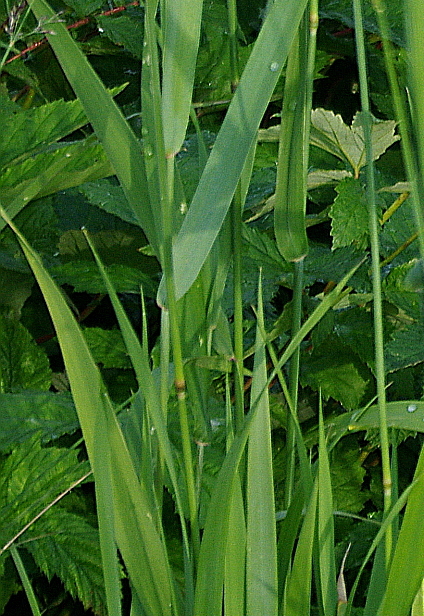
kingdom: Plantae
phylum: Tracheophyta
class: Liliopsida
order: Poales
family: Poaceae
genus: Elymus
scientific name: Elymus repens
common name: Quackgrass
